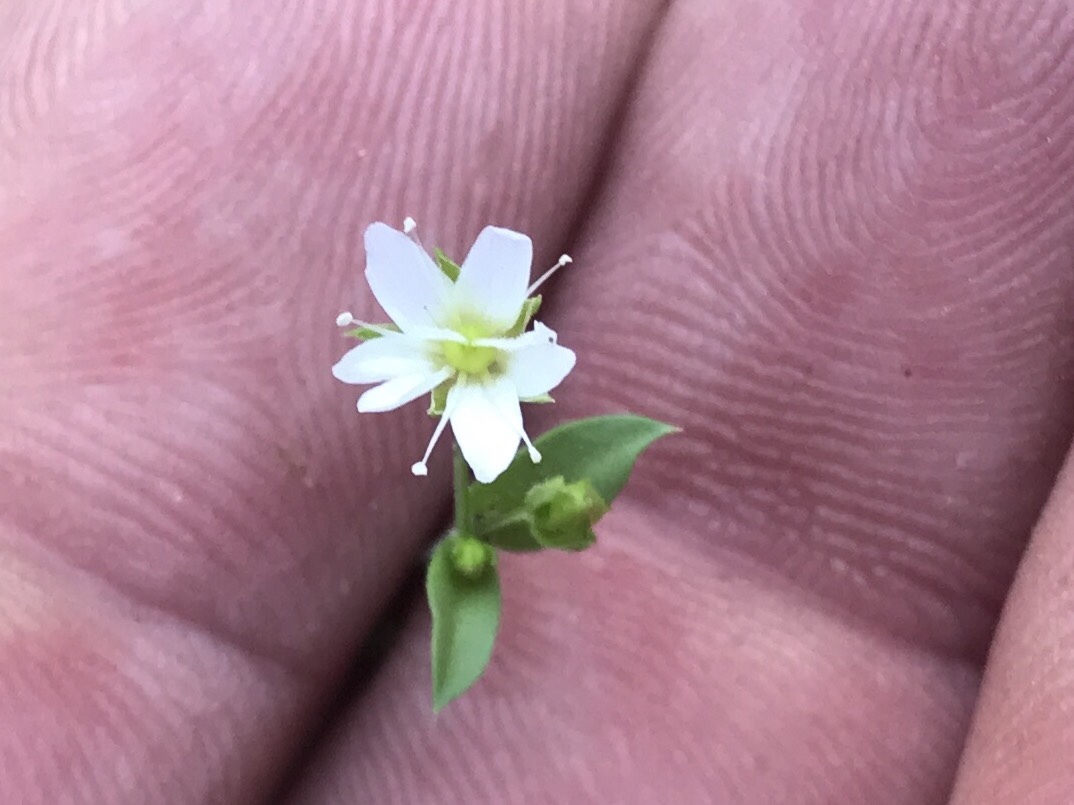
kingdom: Plantae
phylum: Tracheophyta
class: Magnoliopsida
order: Caryophyllales
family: Caryophyllaceae
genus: Arenaria
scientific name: Arenaria lanuginosa
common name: Spread sandwort
